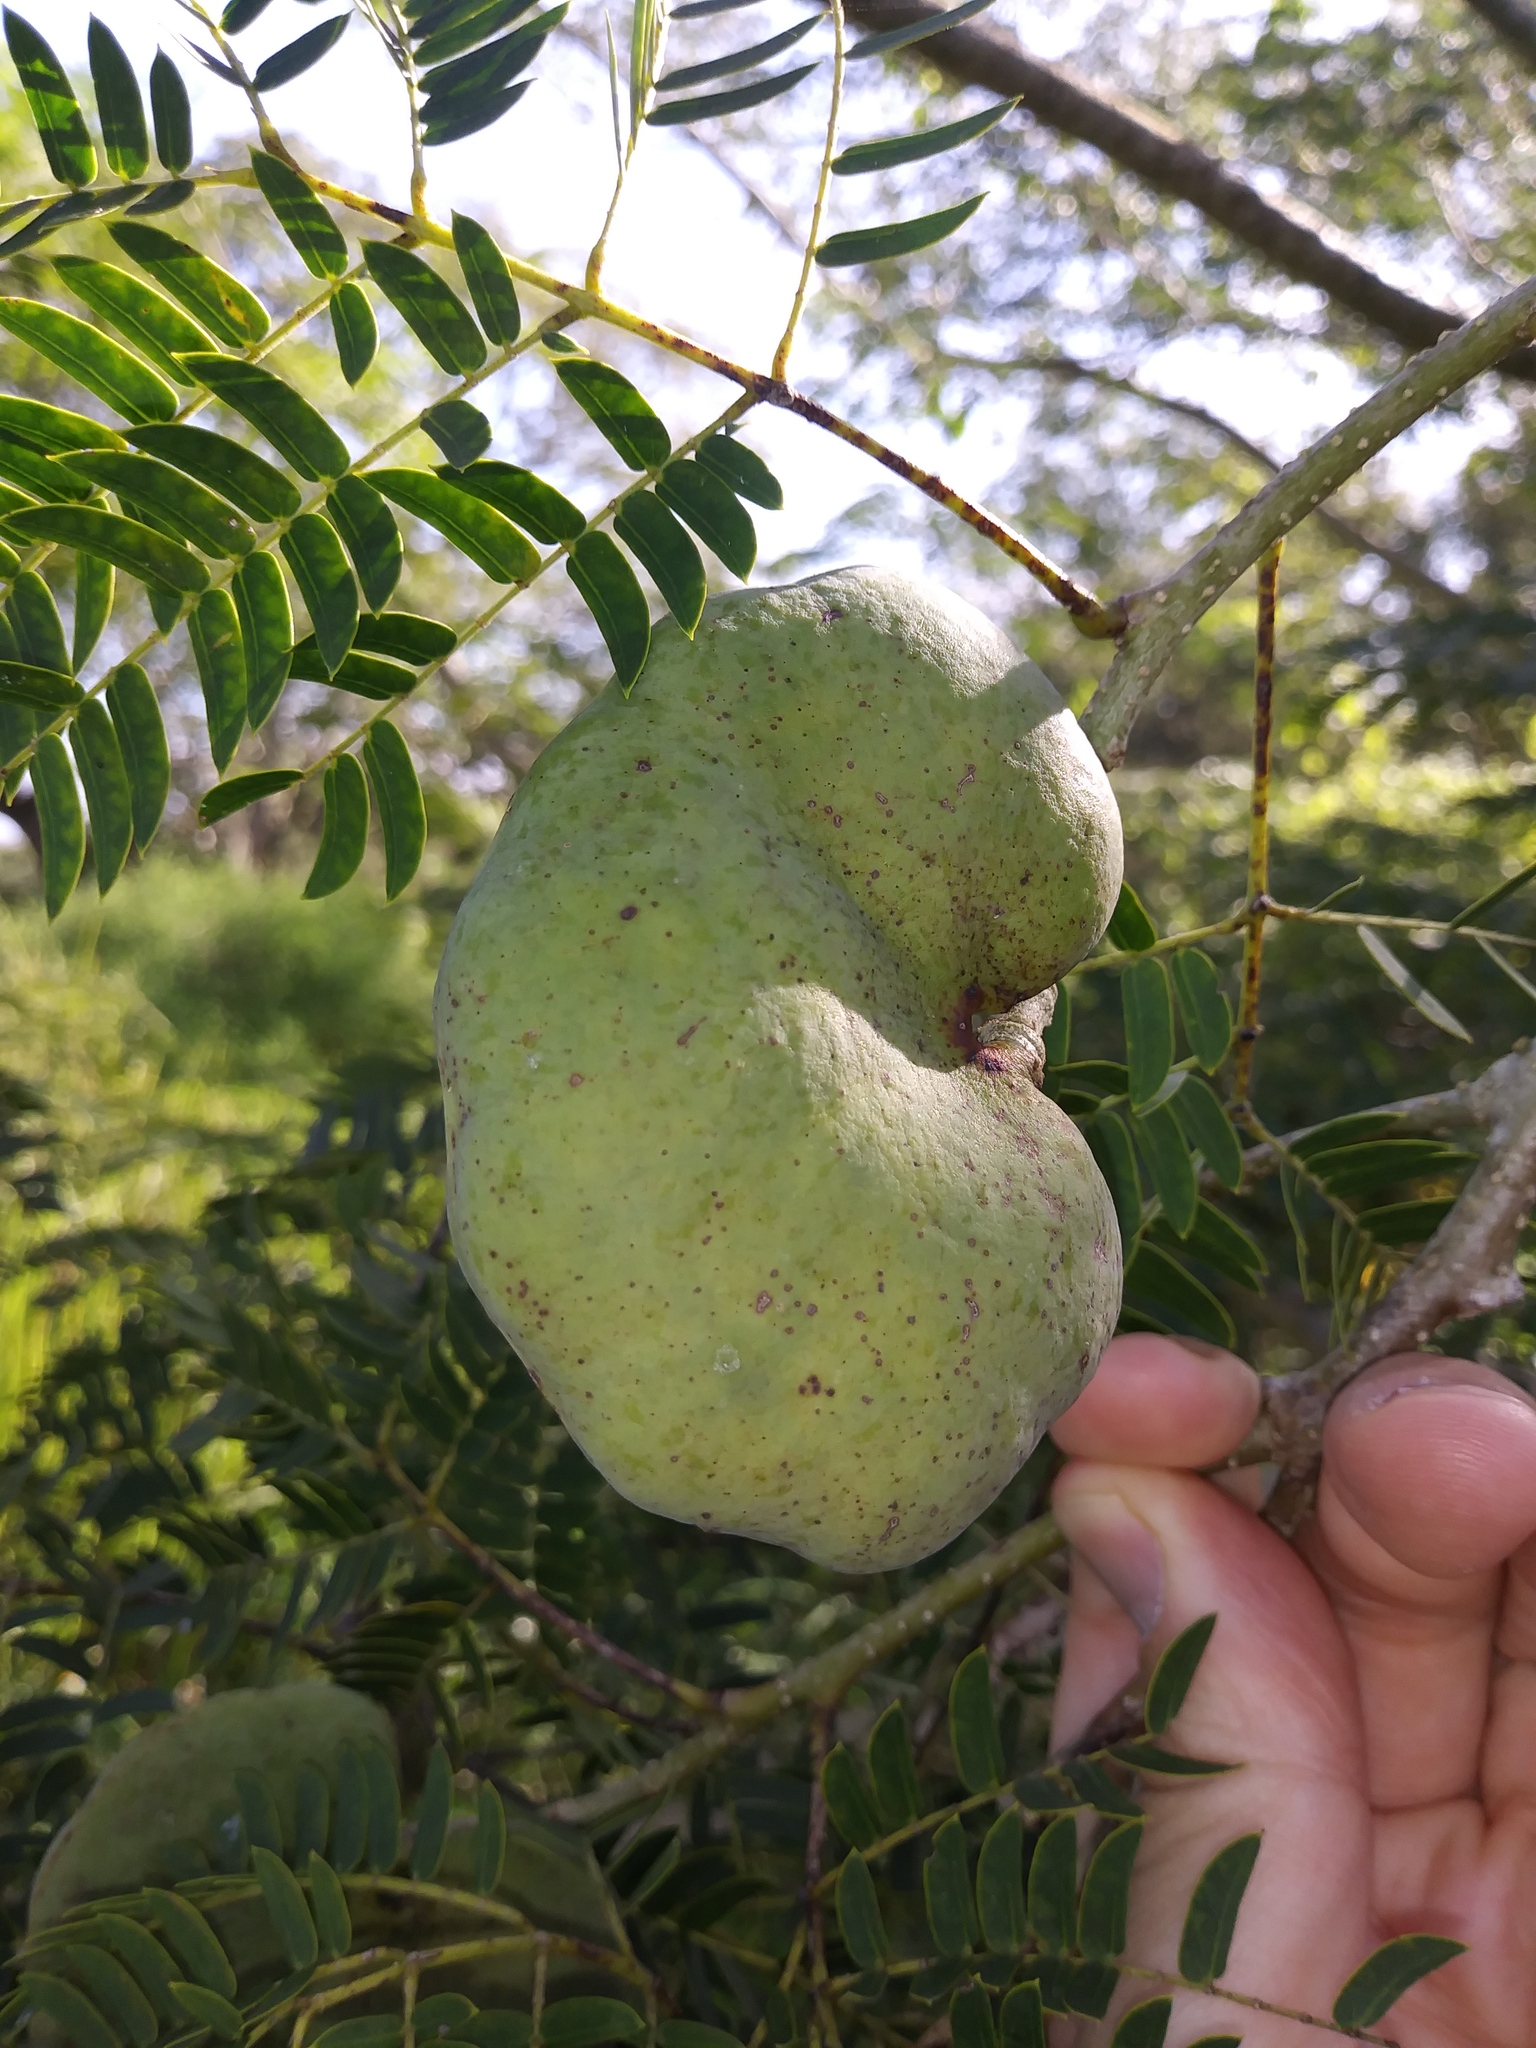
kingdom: Plantae
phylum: Tracheophyta
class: Magnoliopsida
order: Fabales
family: Fabaceae
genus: Enterolobium
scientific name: Enterolobium contortisiliquum
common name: Pacara earpod tree
